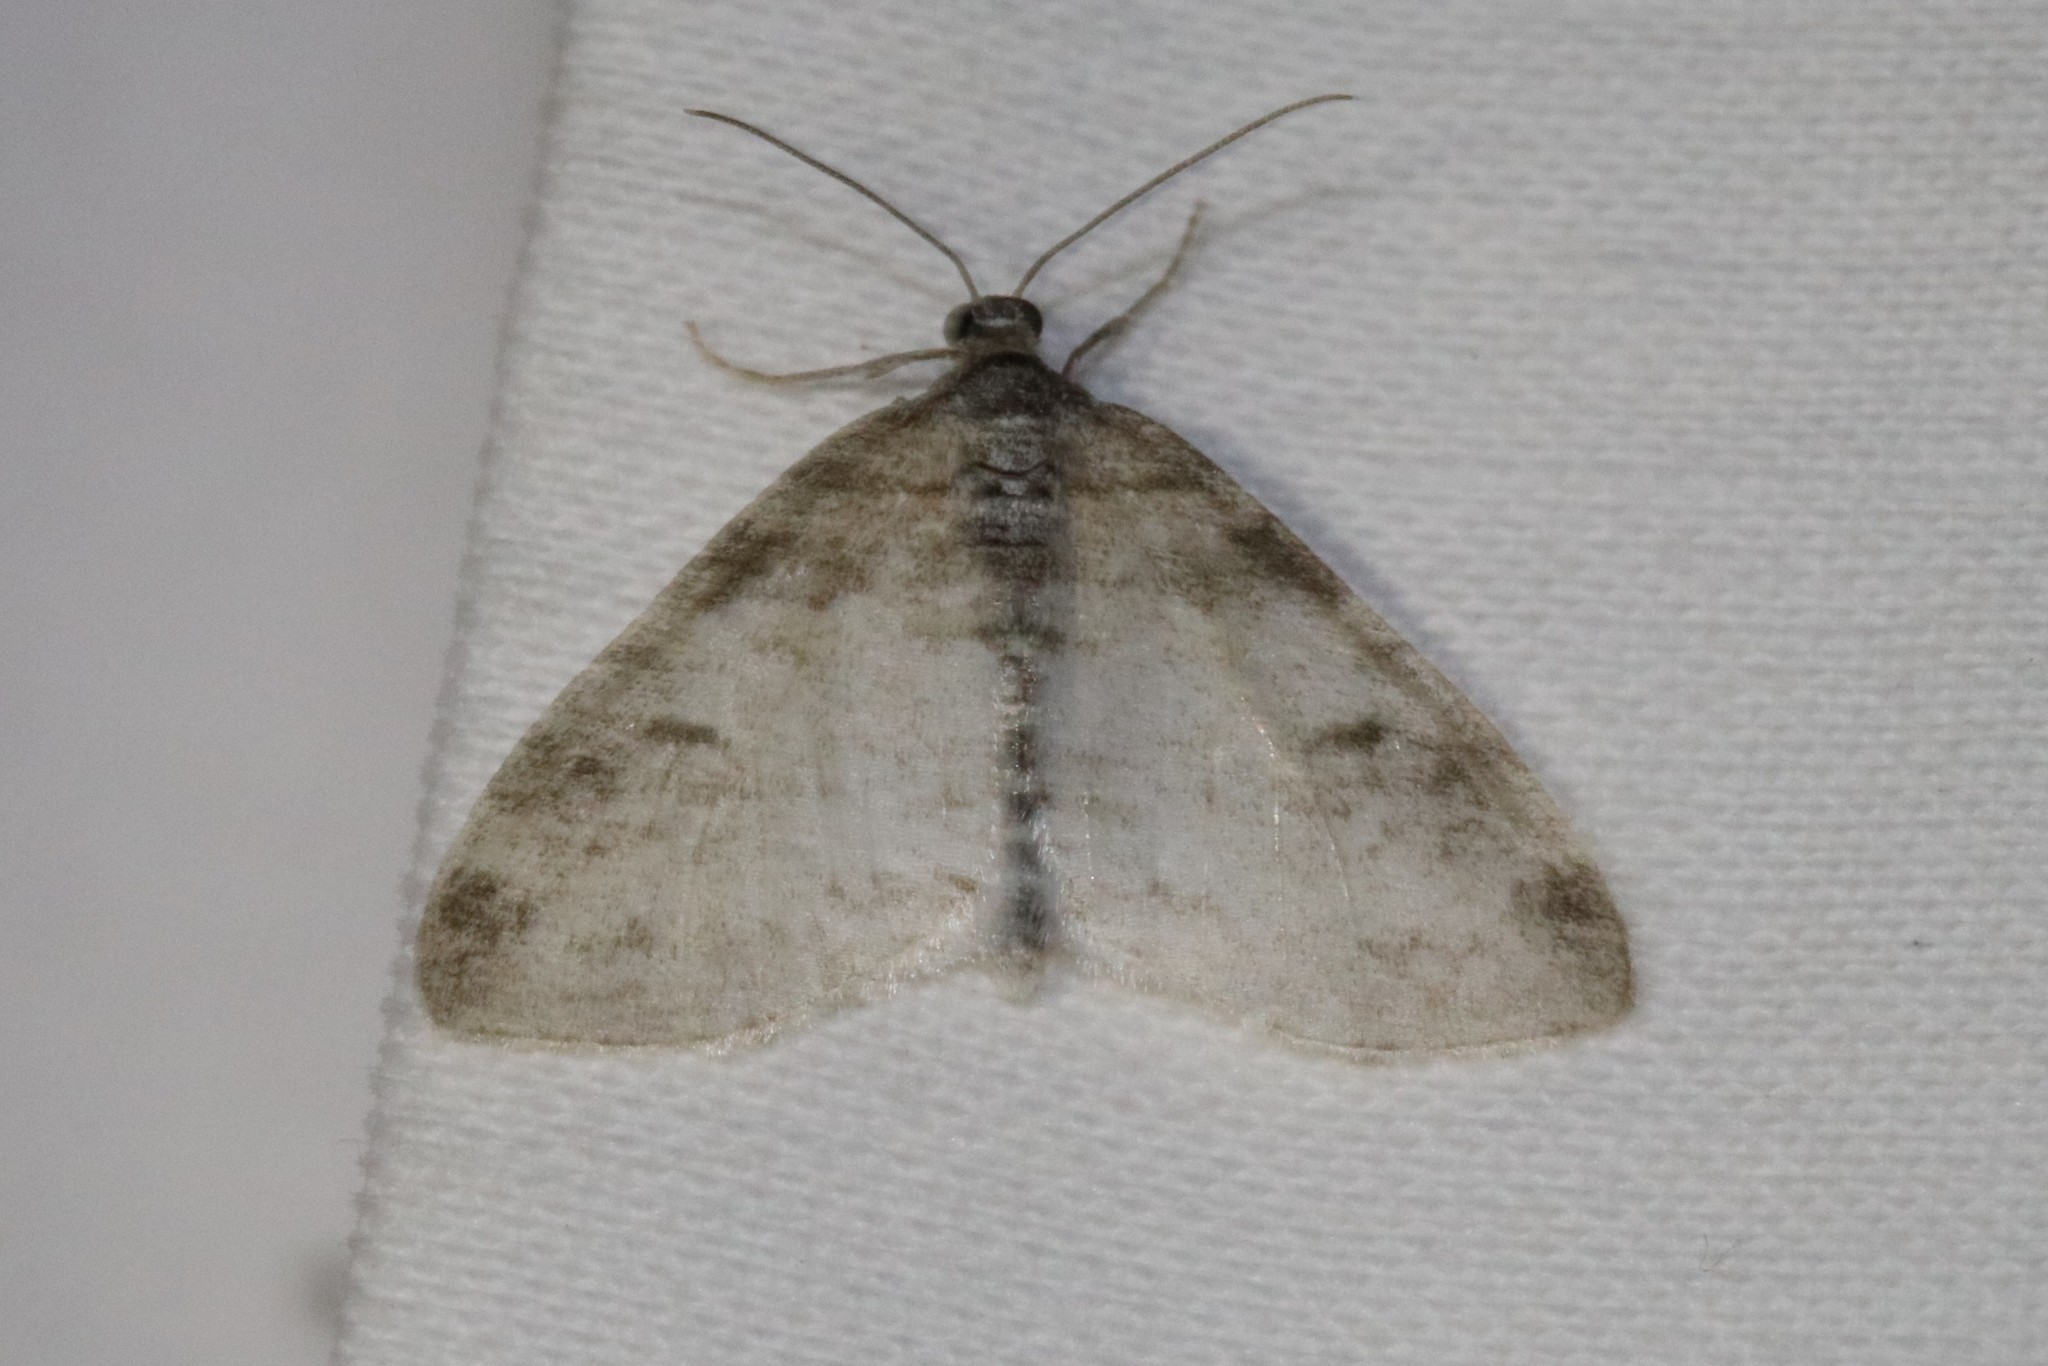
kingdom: Animalia
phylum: Arthropoda
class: Insecta
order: Lepidoptera
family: Geometridae
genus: Lobophora
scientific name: Lobophora nivigerata
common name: Powdered bigwing
